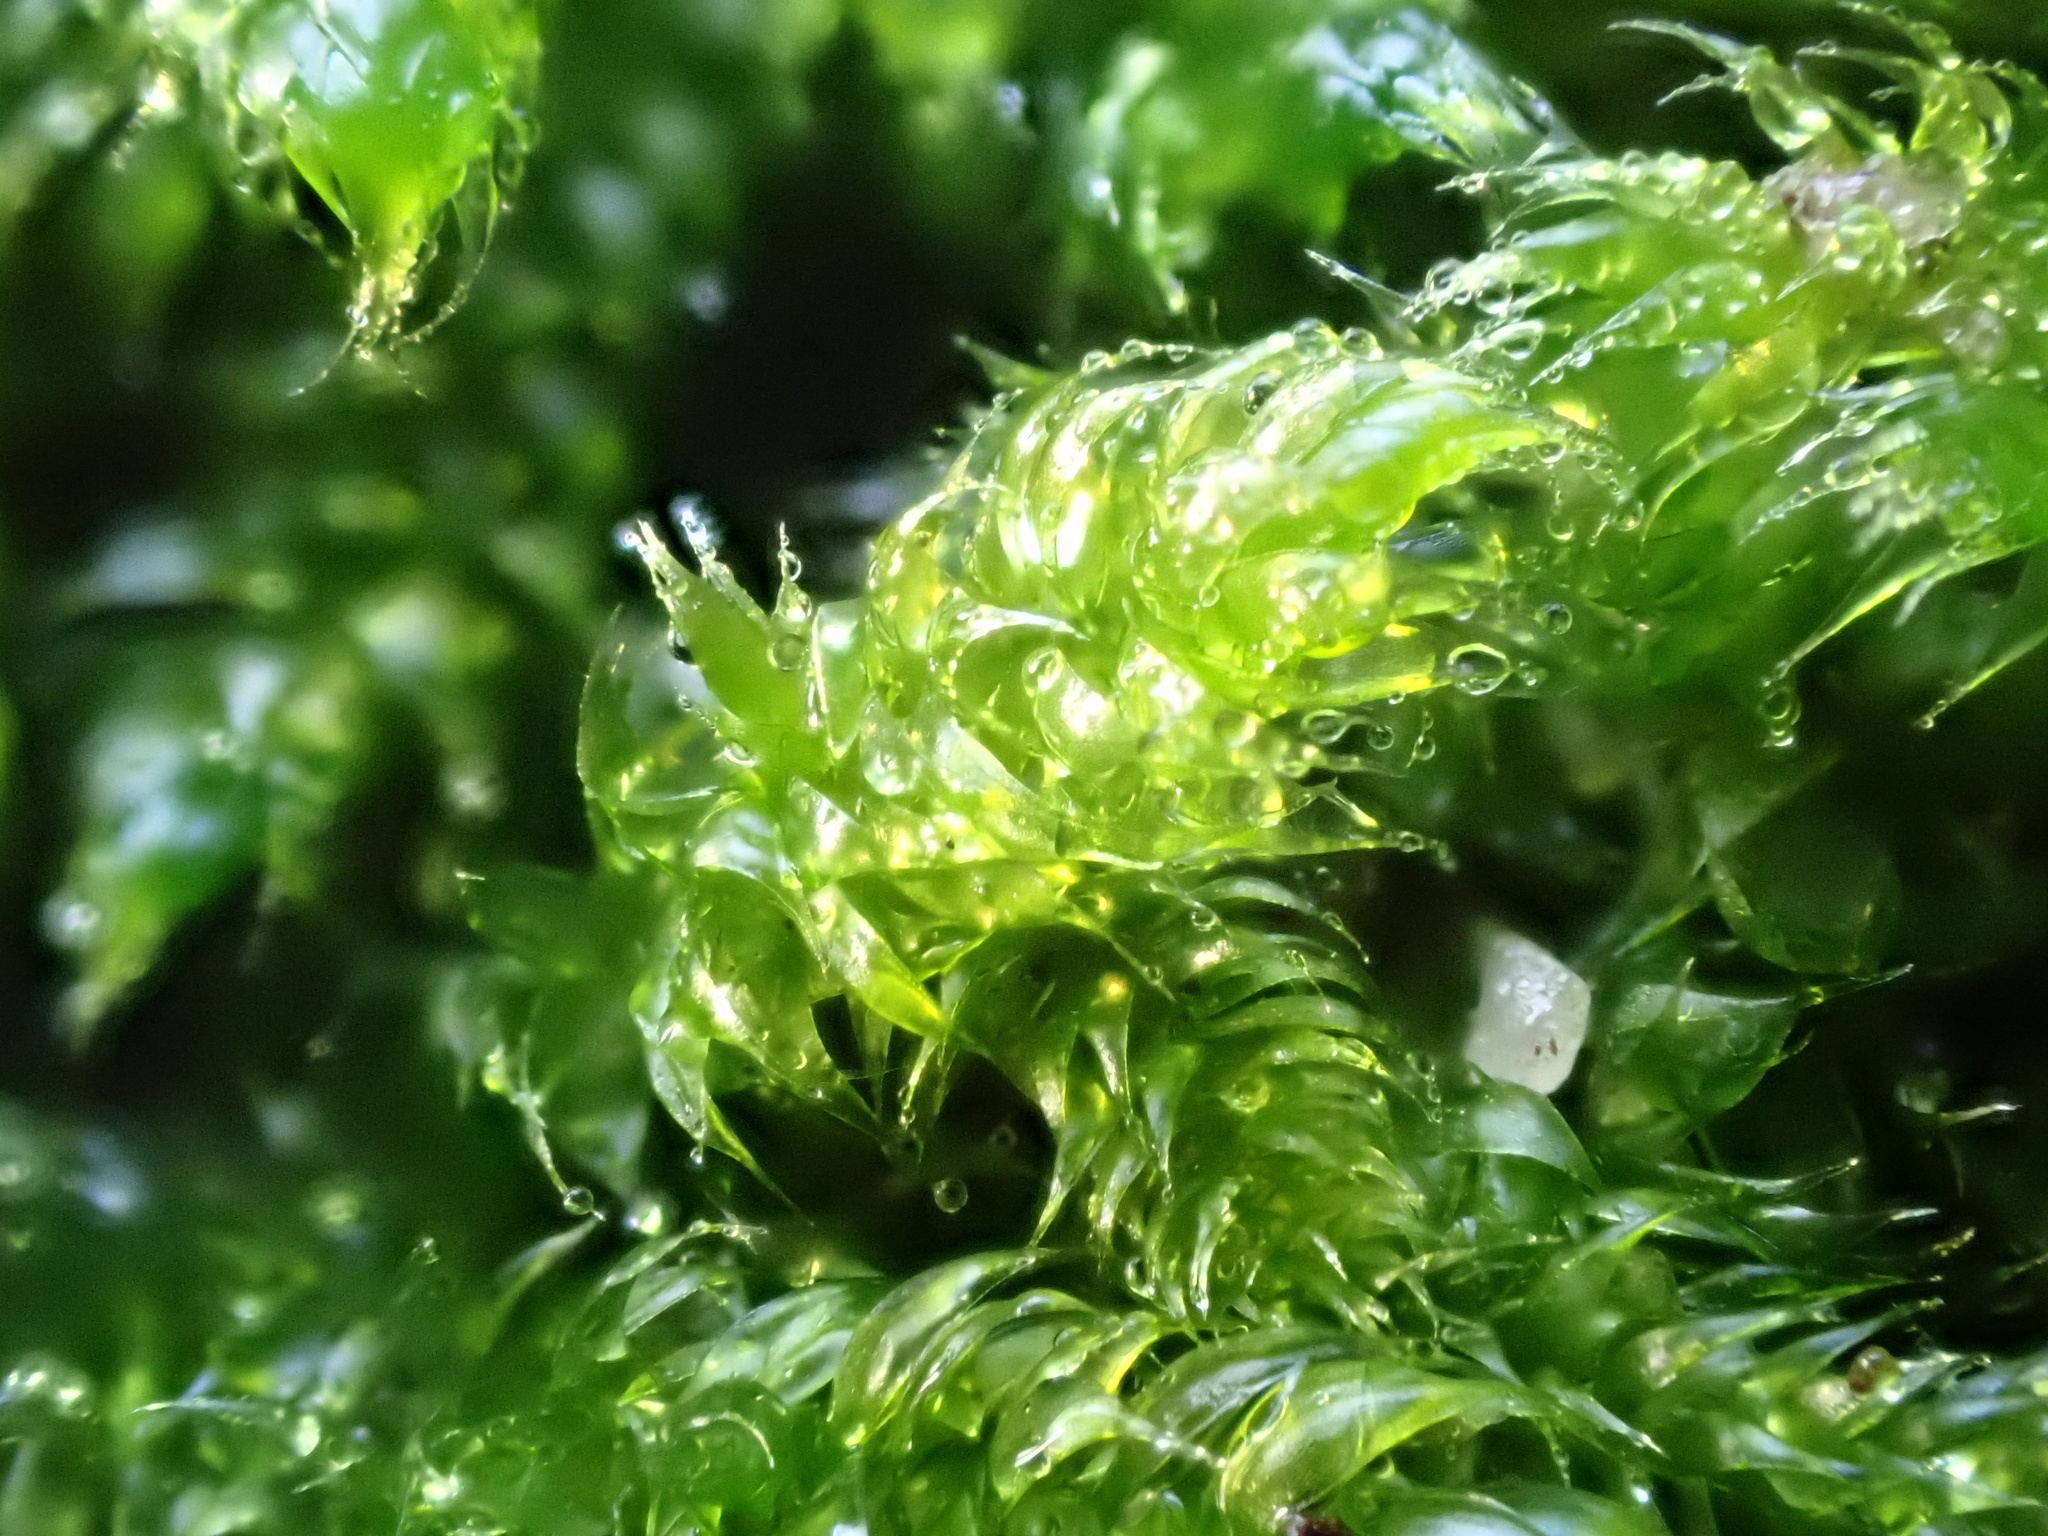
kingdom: Plantae
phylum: Bryophyta
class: Bryopsida
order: Hypnales
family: Hypnaceae
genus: Hypnum
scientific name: Hypnum cupressiforme
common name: Cypress-leaved plait-moss
